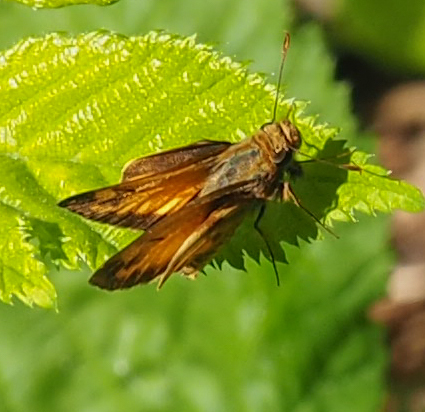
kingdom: Animalia
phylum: Arthropoda
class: Insecta
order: Lepidoptera
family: Hesperiidae
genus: Lon
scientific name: Lon zabulon
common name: Zabulon skipper
